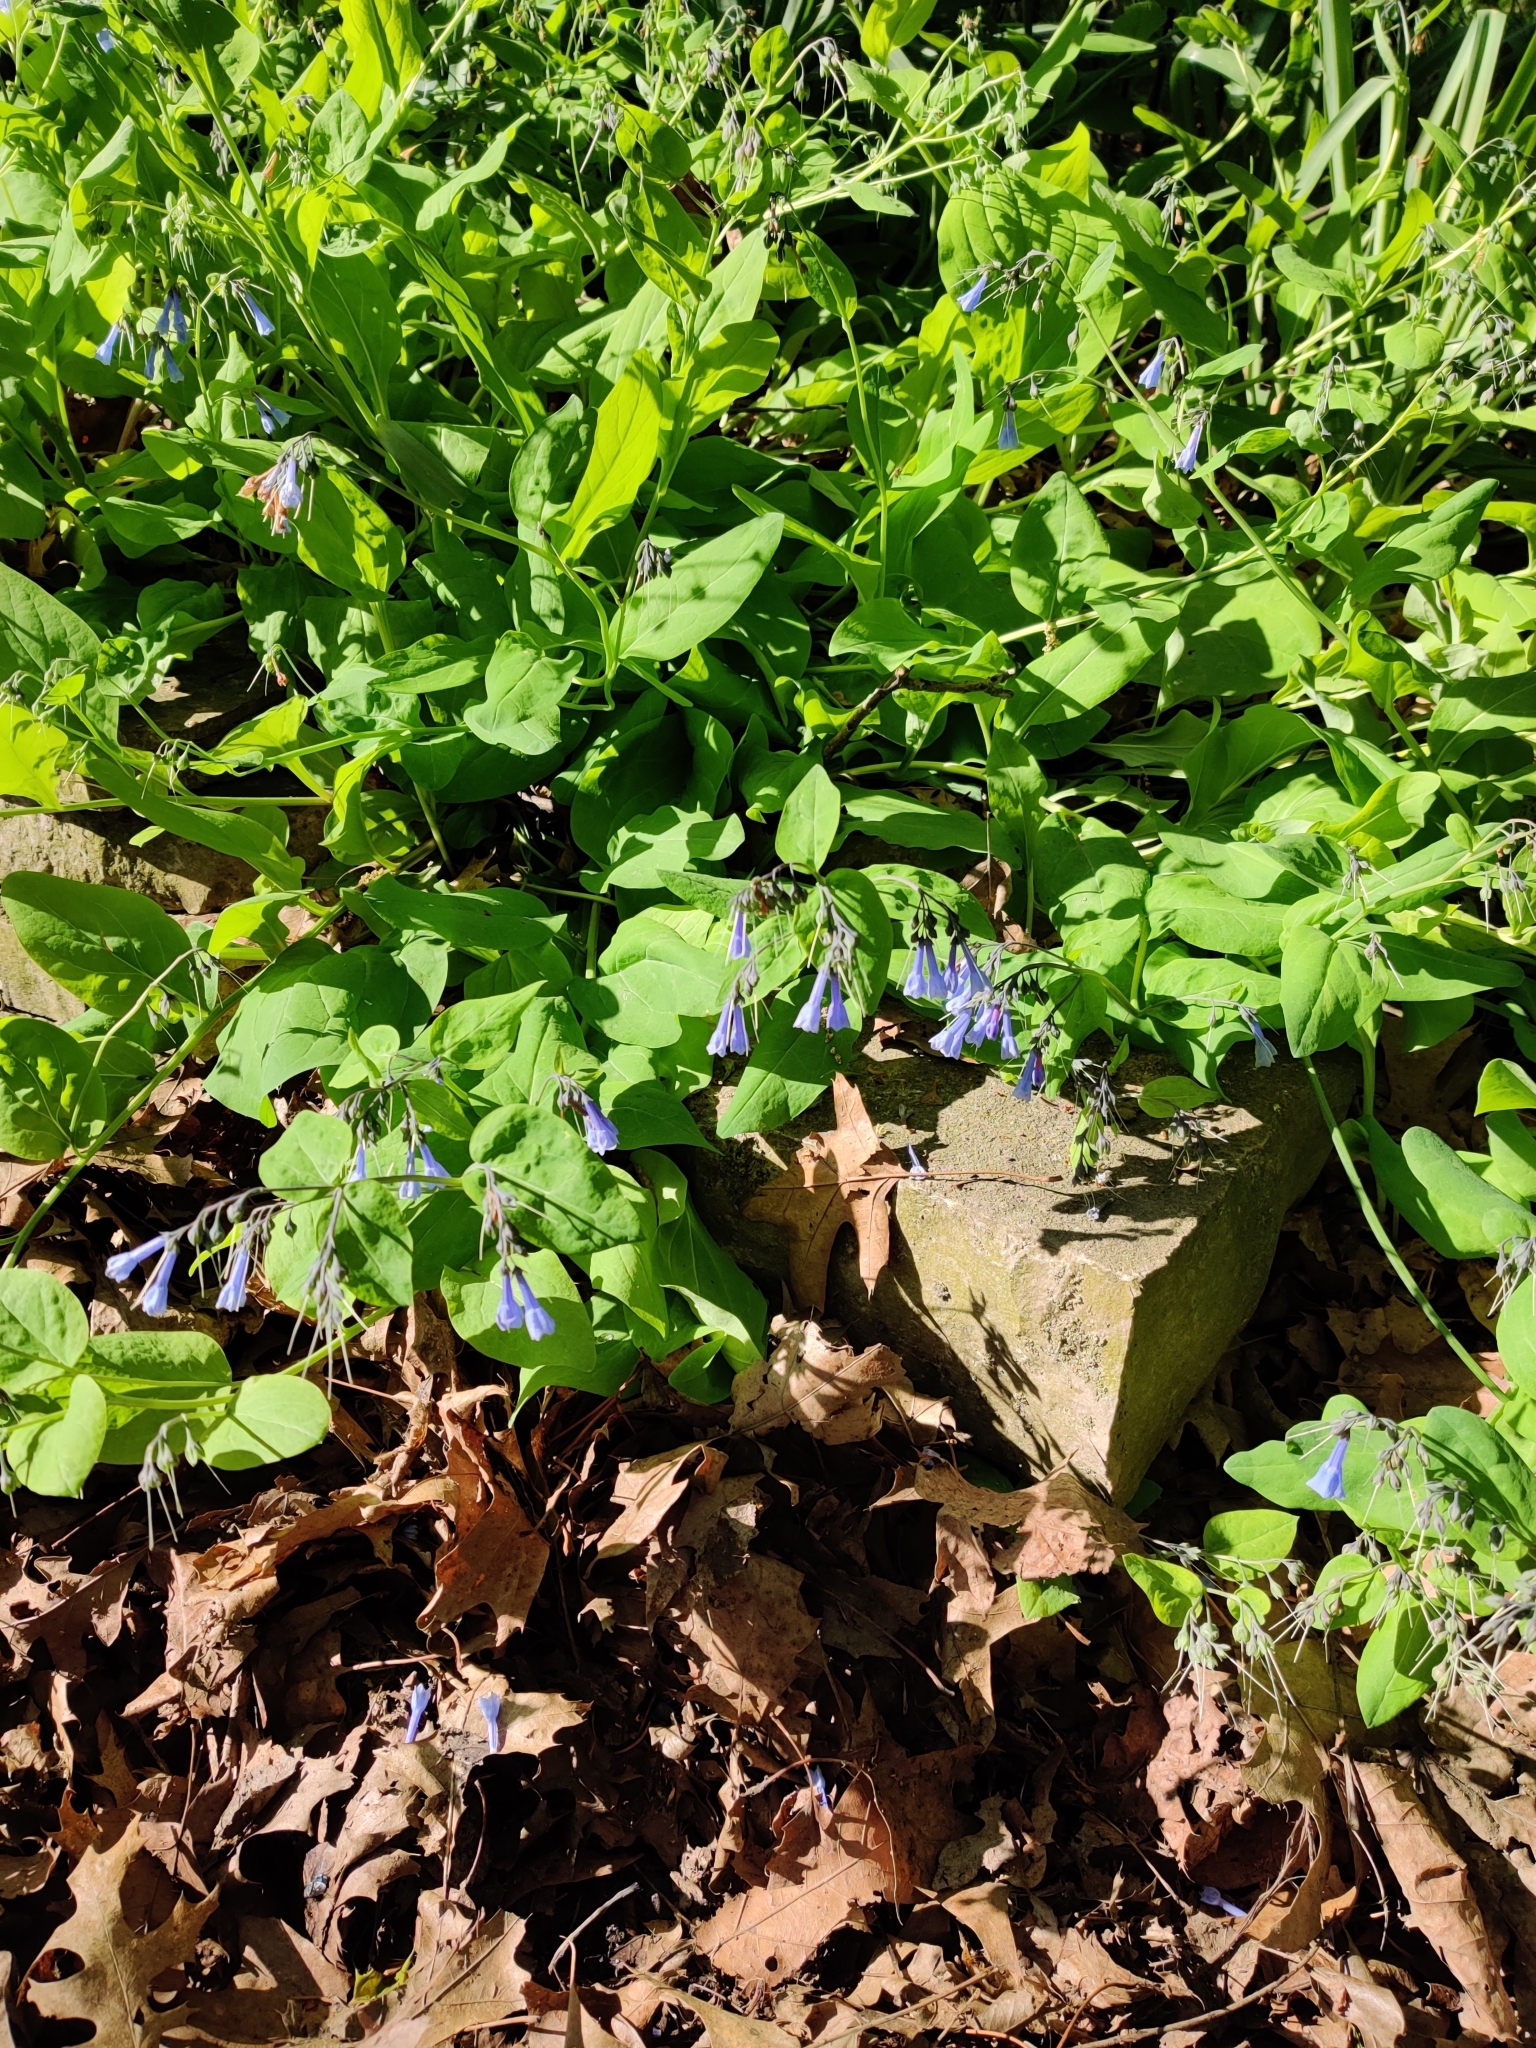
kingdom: Plantae
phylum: Tracheophyta
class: Magnoliopsida
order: Boraginales
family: Boraginaceae
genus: Mertensia
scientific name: Mertensia virginica
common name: Virginia bluebells
